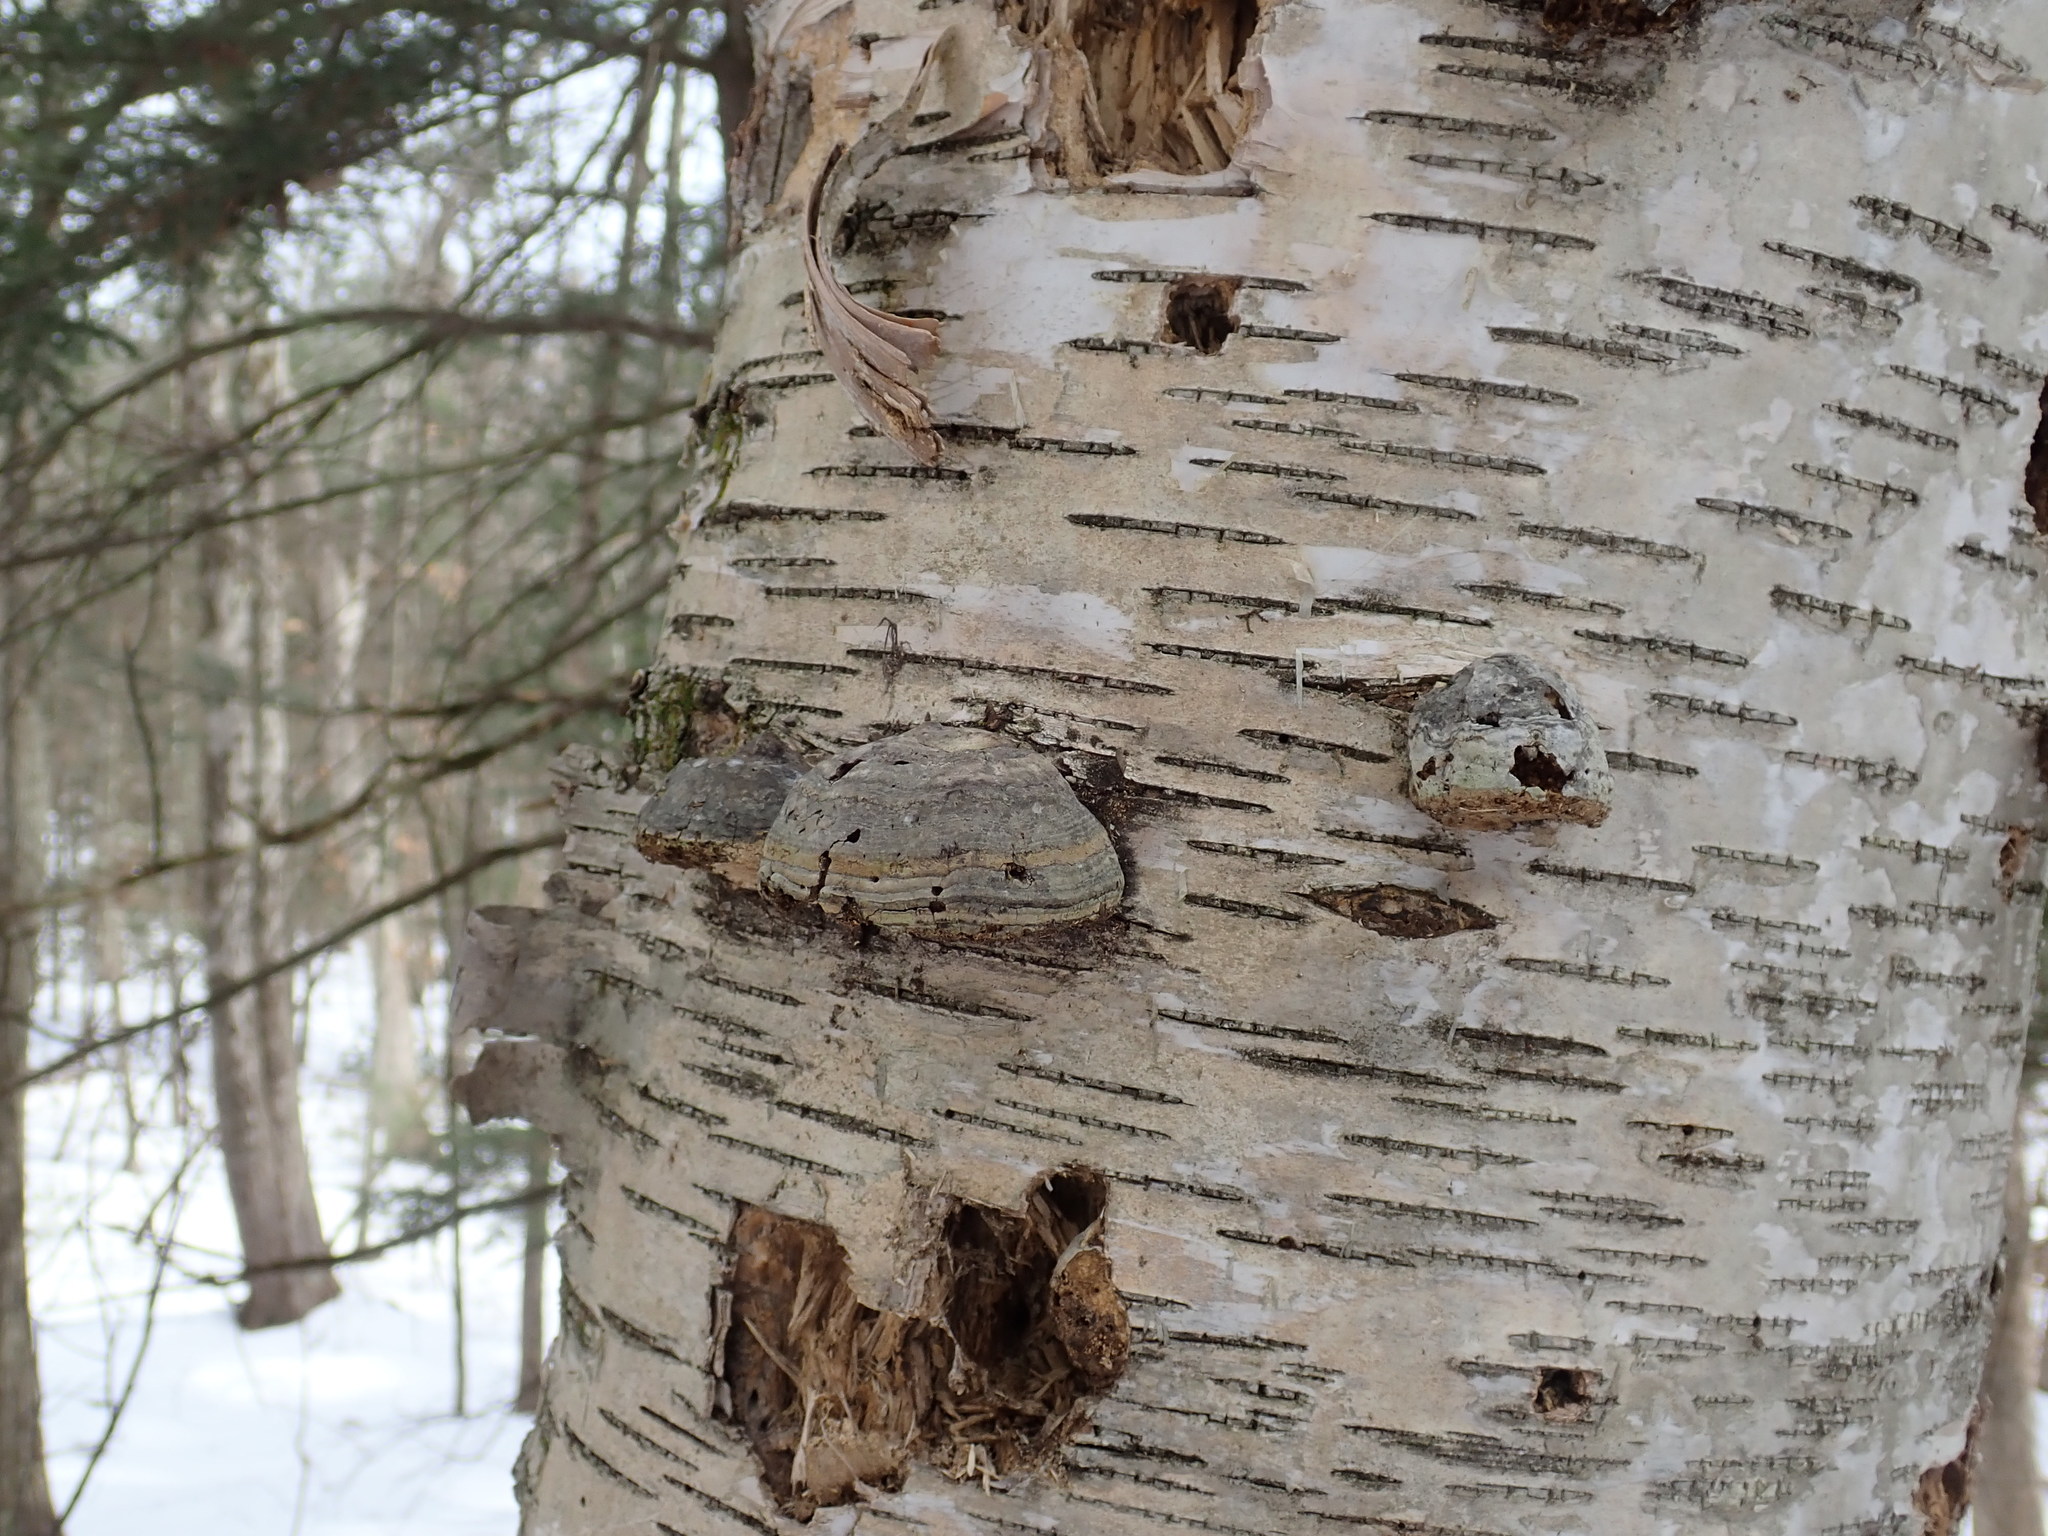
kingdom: Fungi
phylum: Basidiomycota
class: Agaricomycetes
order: Polyporales
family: Polyporaceae
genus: Fomes
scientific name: Fomes fomentarius
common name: Hoof fungus
